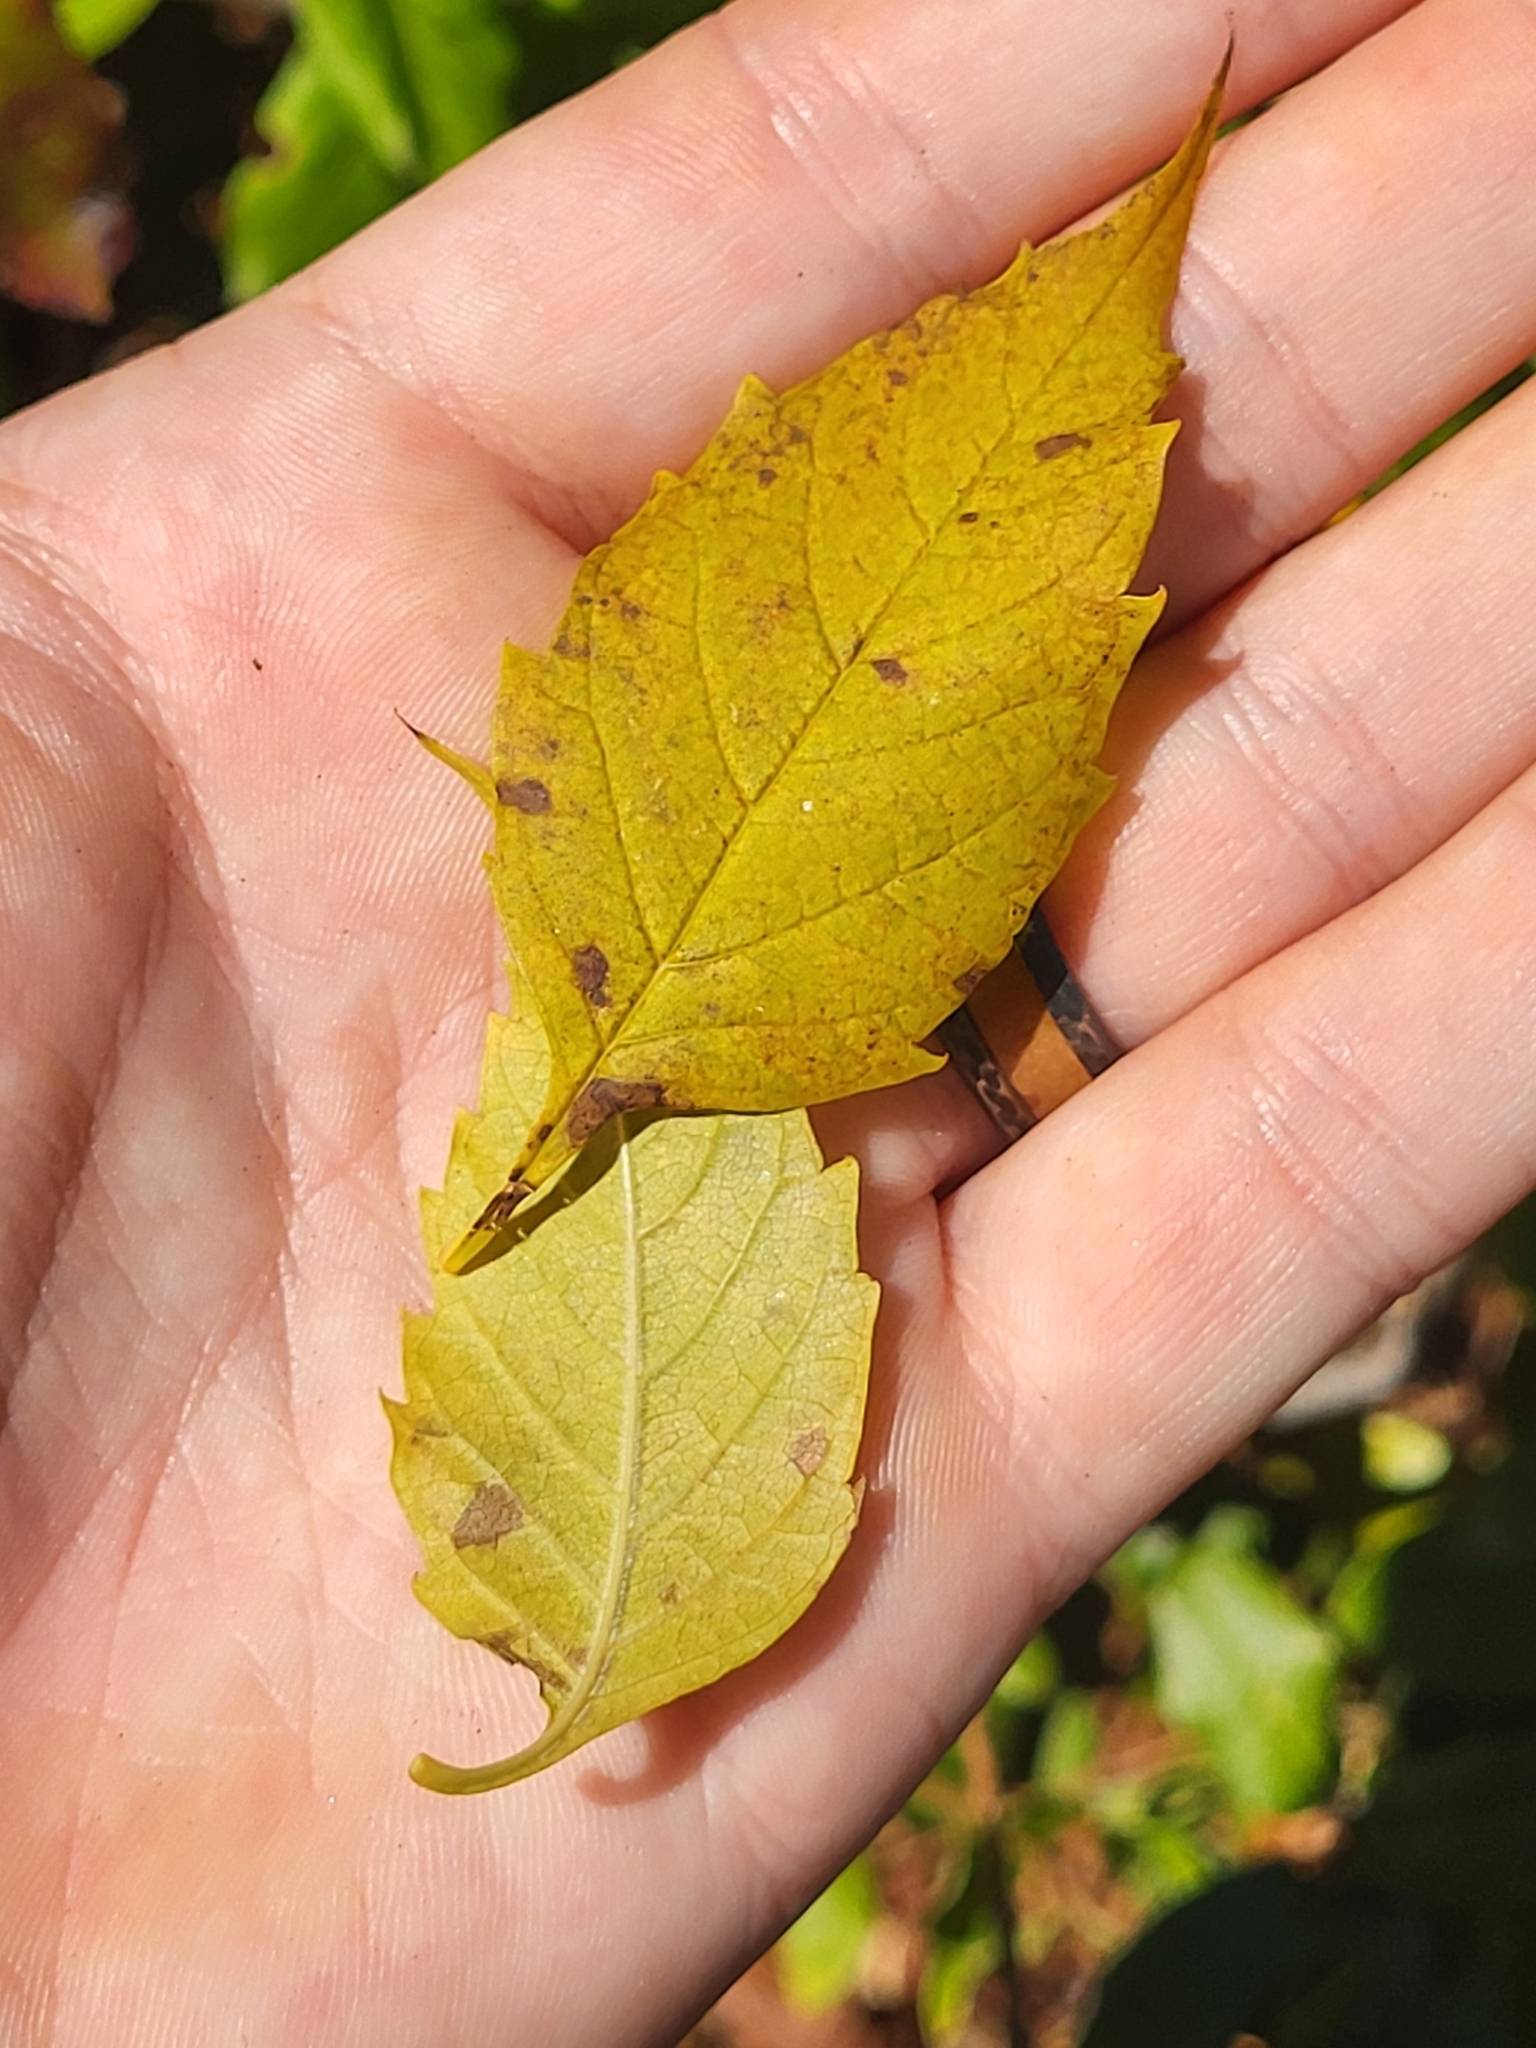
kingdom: Plantae
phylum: Tracheophyta
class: Magnoliopsida
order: Lamiales
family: Bignoniaceae
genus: Campsis
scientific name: Campsis radicans
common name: Trumpet-creeper
